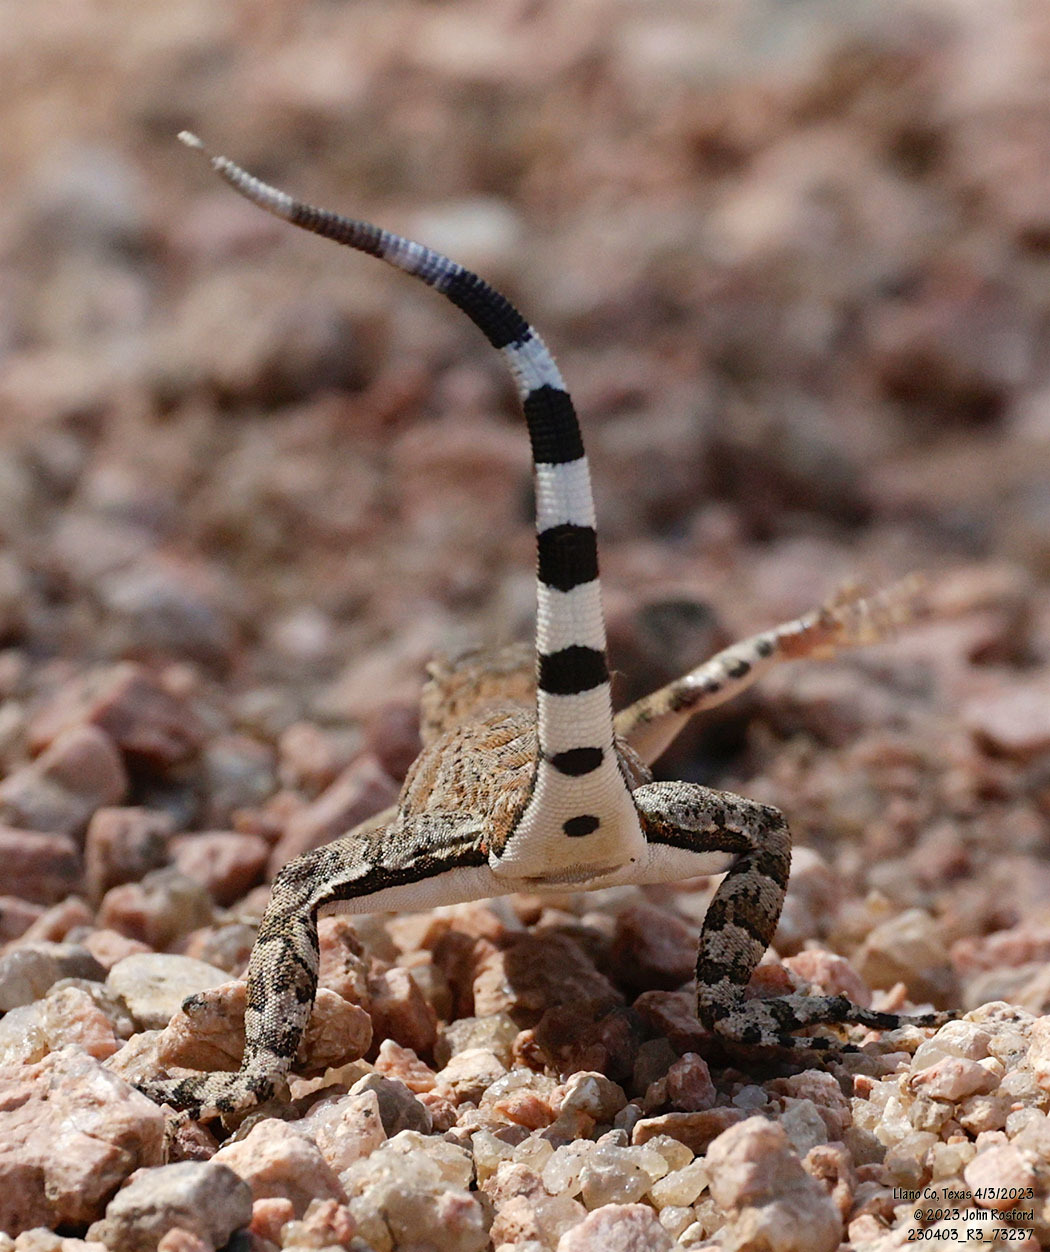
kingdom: Animalia
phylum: Chordata
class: Squamata
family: Phrynosomatidae
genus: Cophosaurus
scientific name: Cophosaurus texanus
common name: Greater earless lizard
